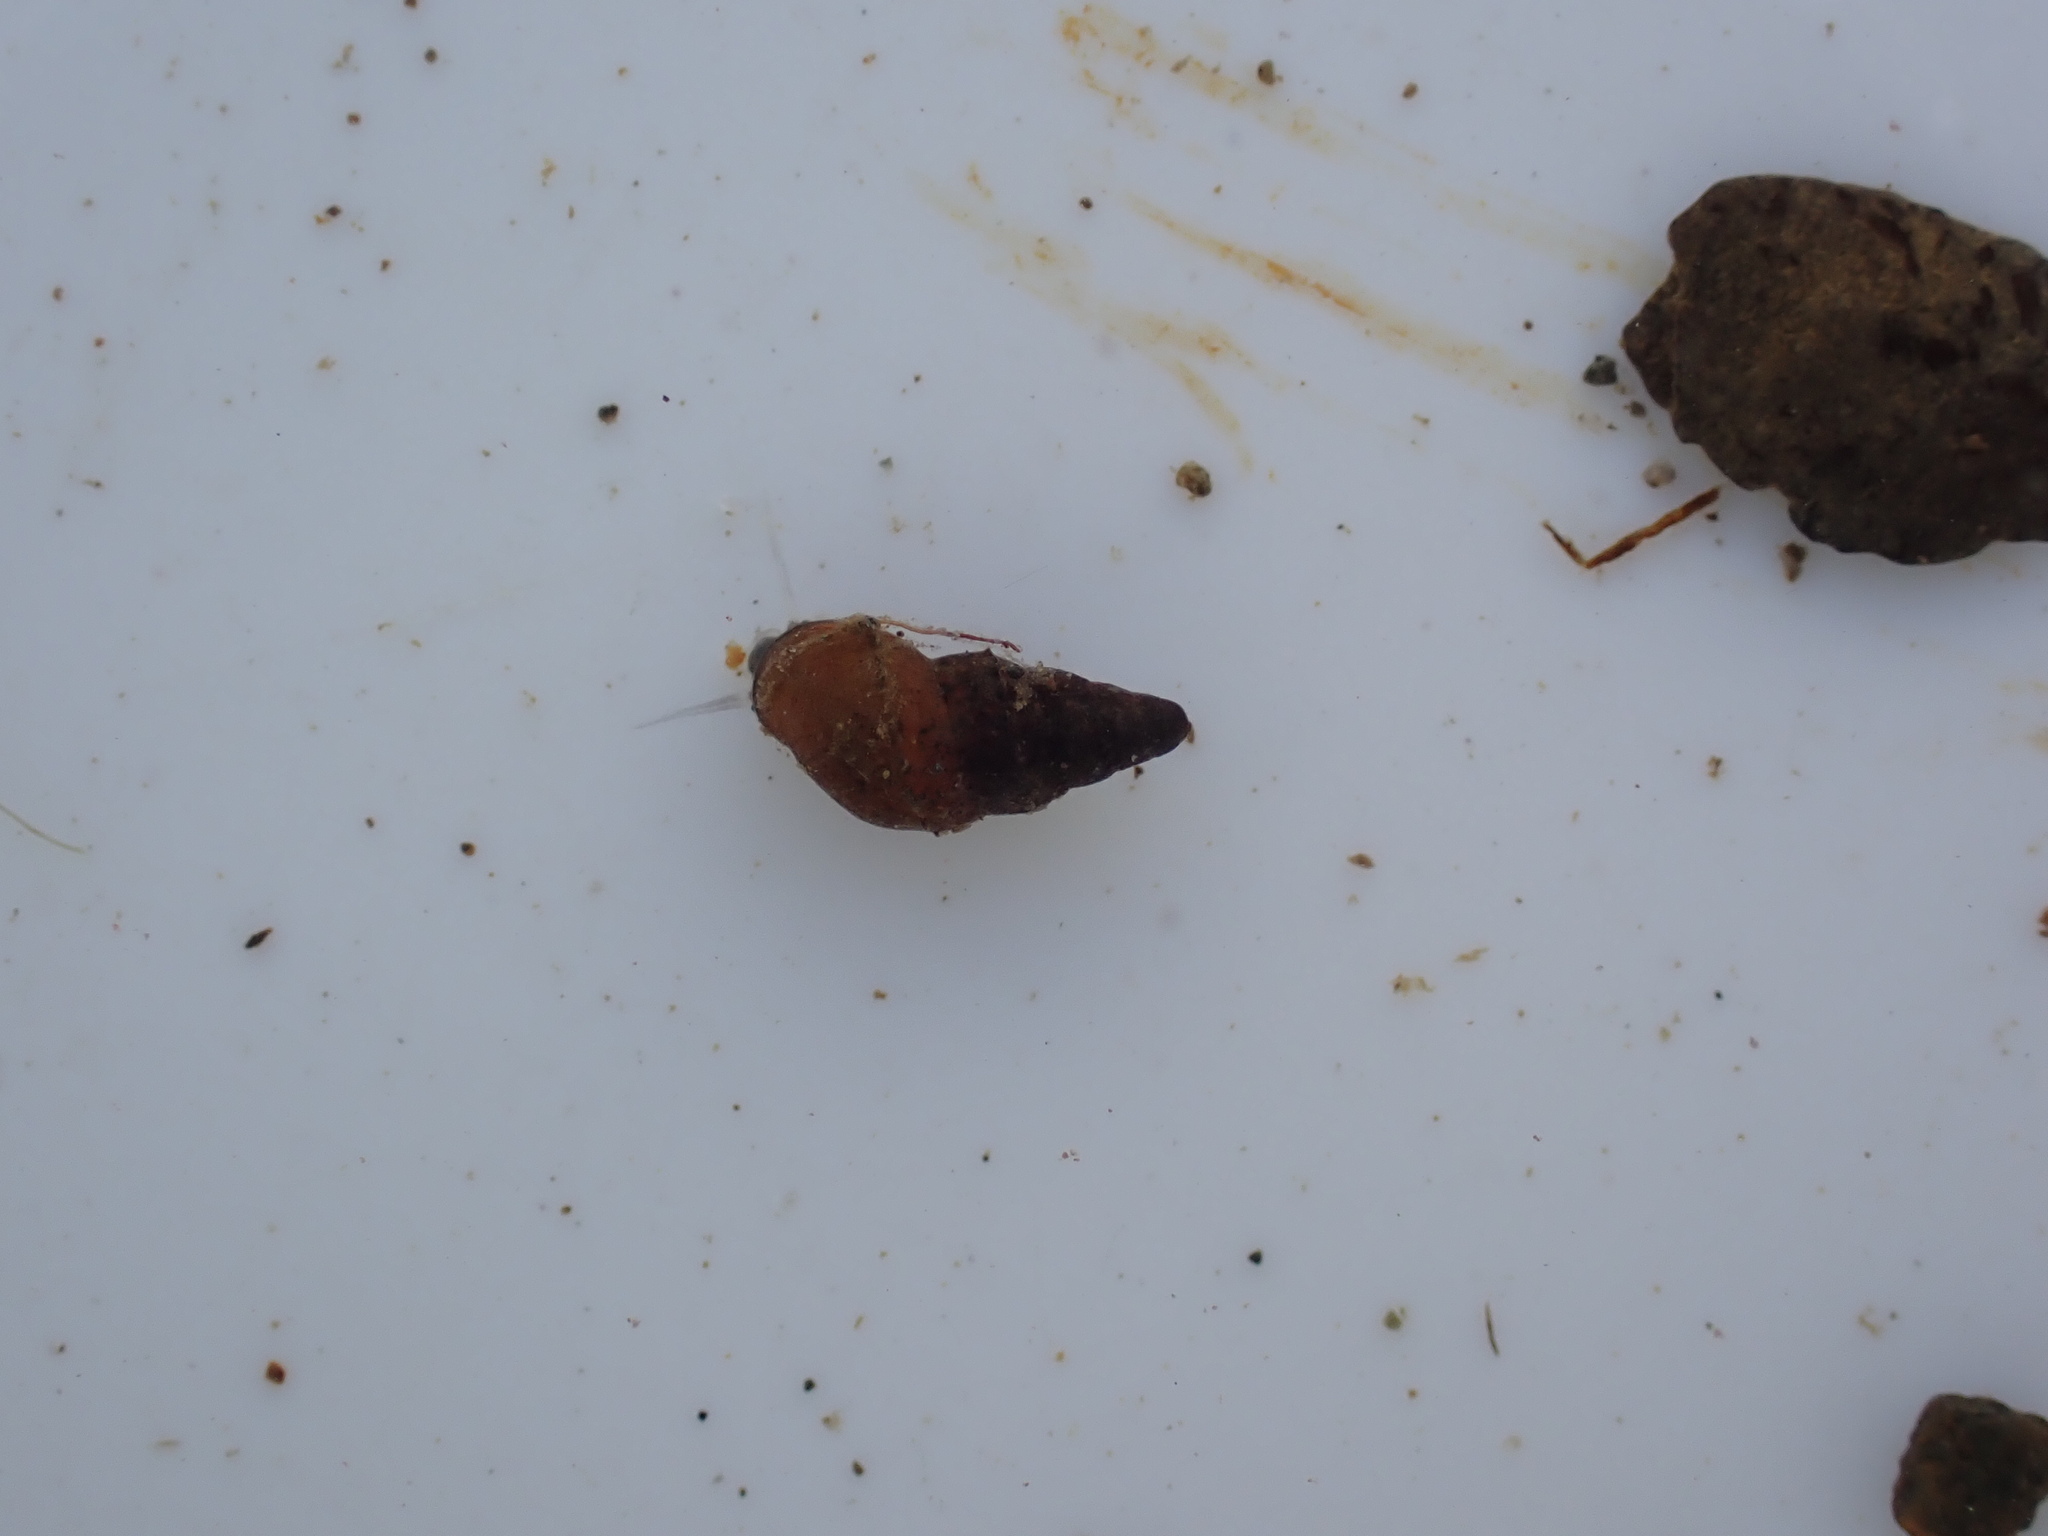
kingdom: Animalia
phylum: Mollusca
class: Gastropoda
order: Littorinimorpha
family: Tateidae
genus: Potamopyrgus
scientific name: Potamopyrgus antipodarum
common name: Jenkins' spire snail
